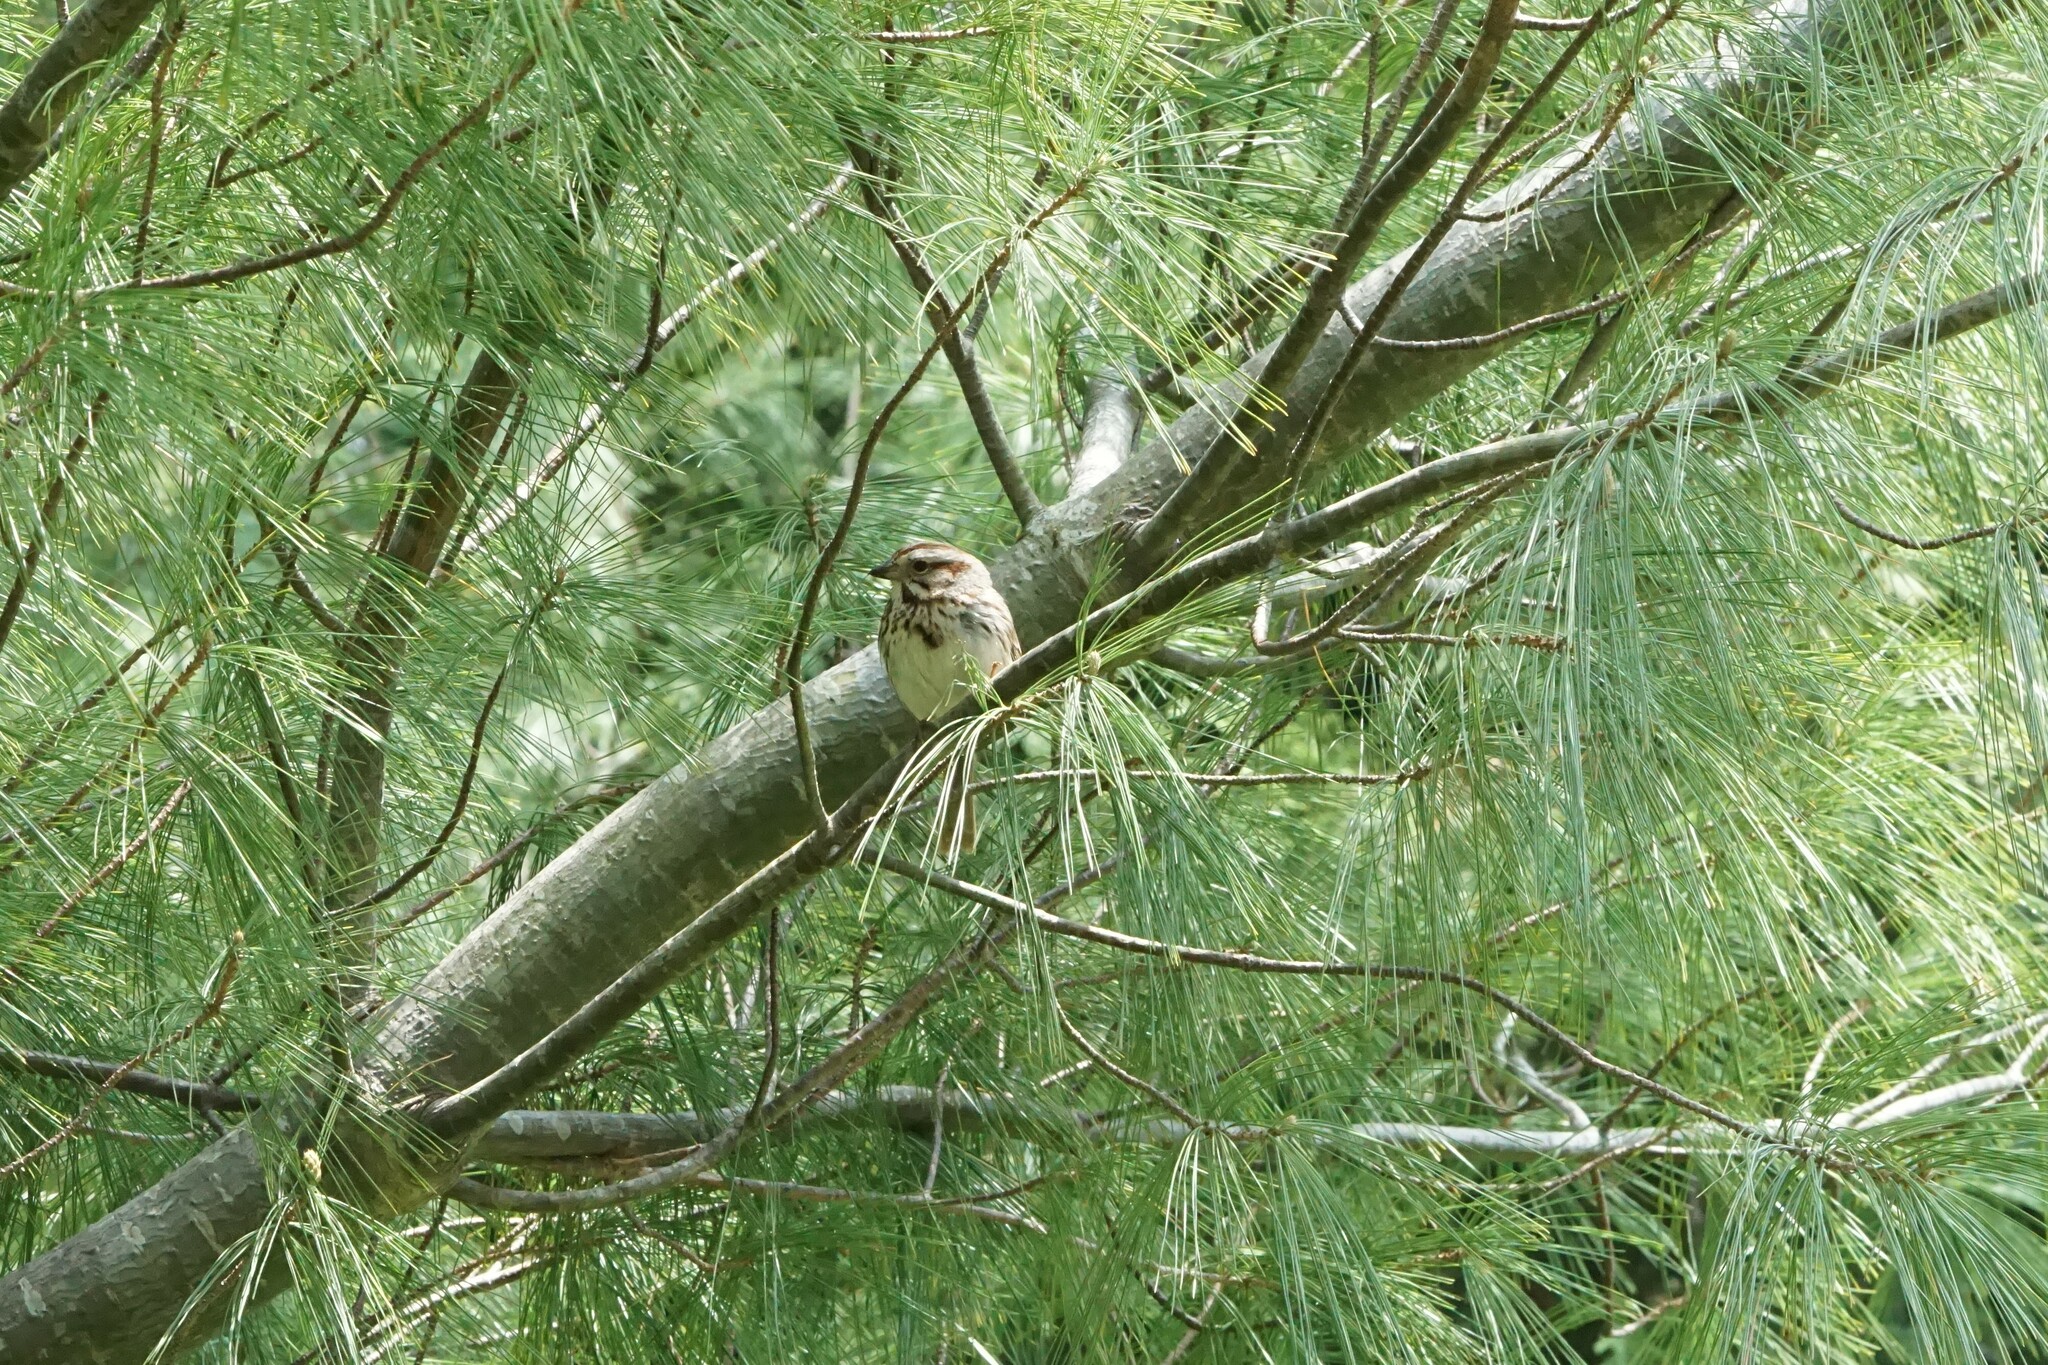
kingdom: Animalia
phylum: Chordata
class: Aves
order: Passeriformes
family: Passerellidae
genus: Melospiza
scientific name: Melospiza melodia
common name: Song sparrow
